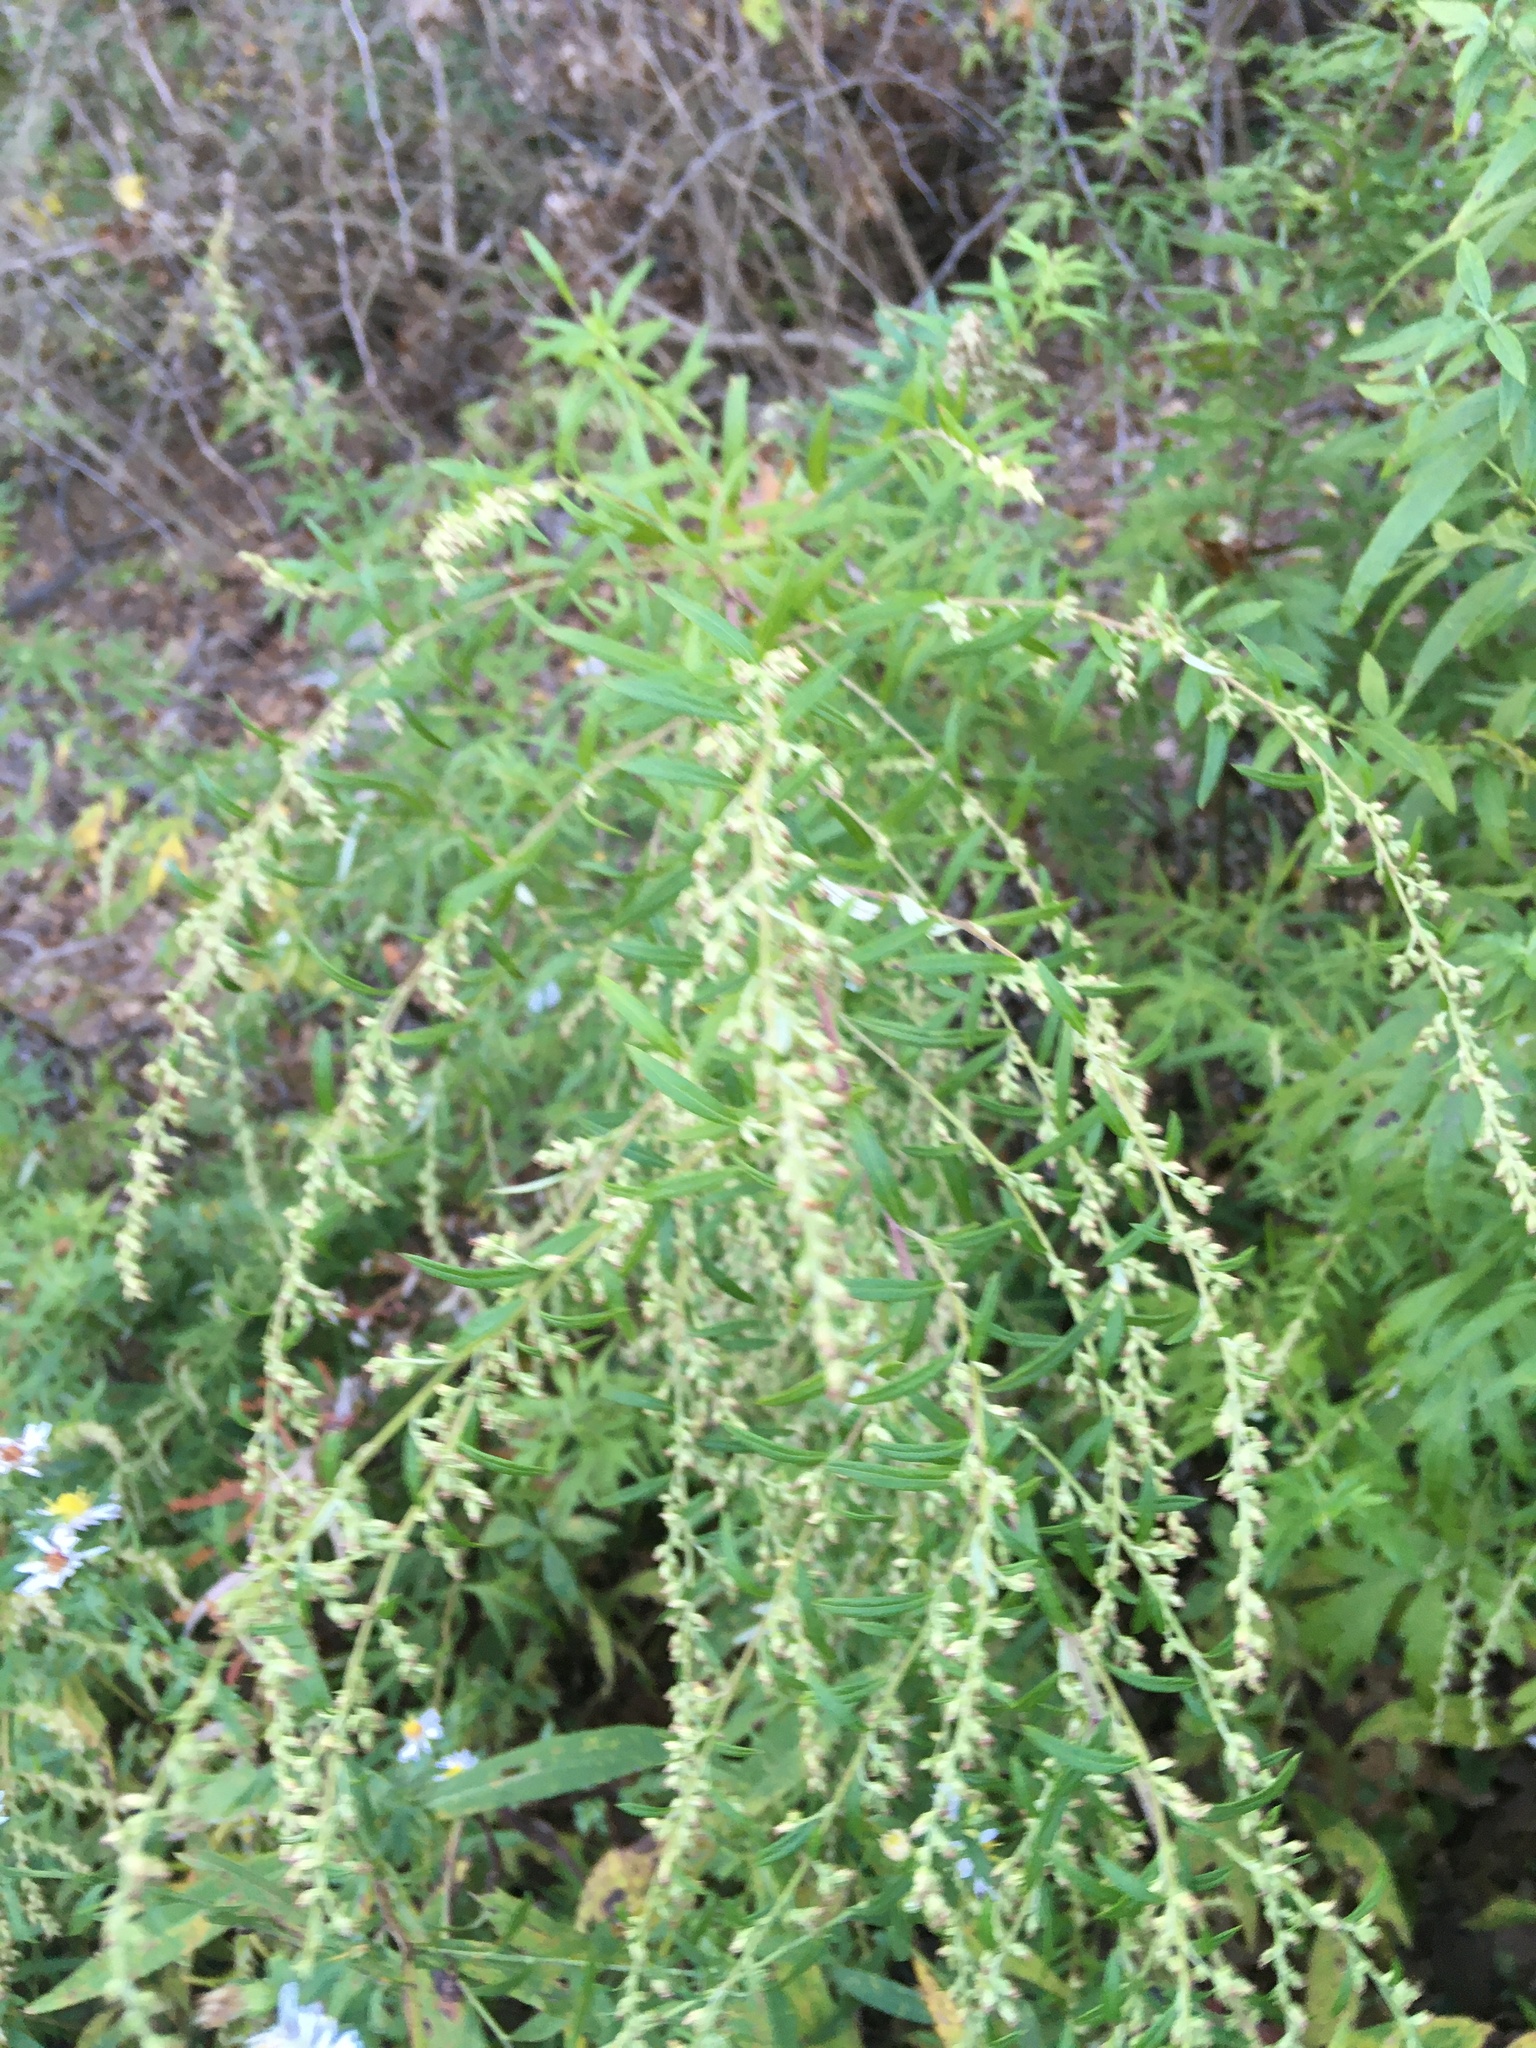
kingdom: Plantae
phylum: Tracheophyta
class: Magnoliopsida
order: Asterales
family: Asteraceae
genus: Artemisia
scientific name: Artemisia vulgaris
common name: Mugwort
